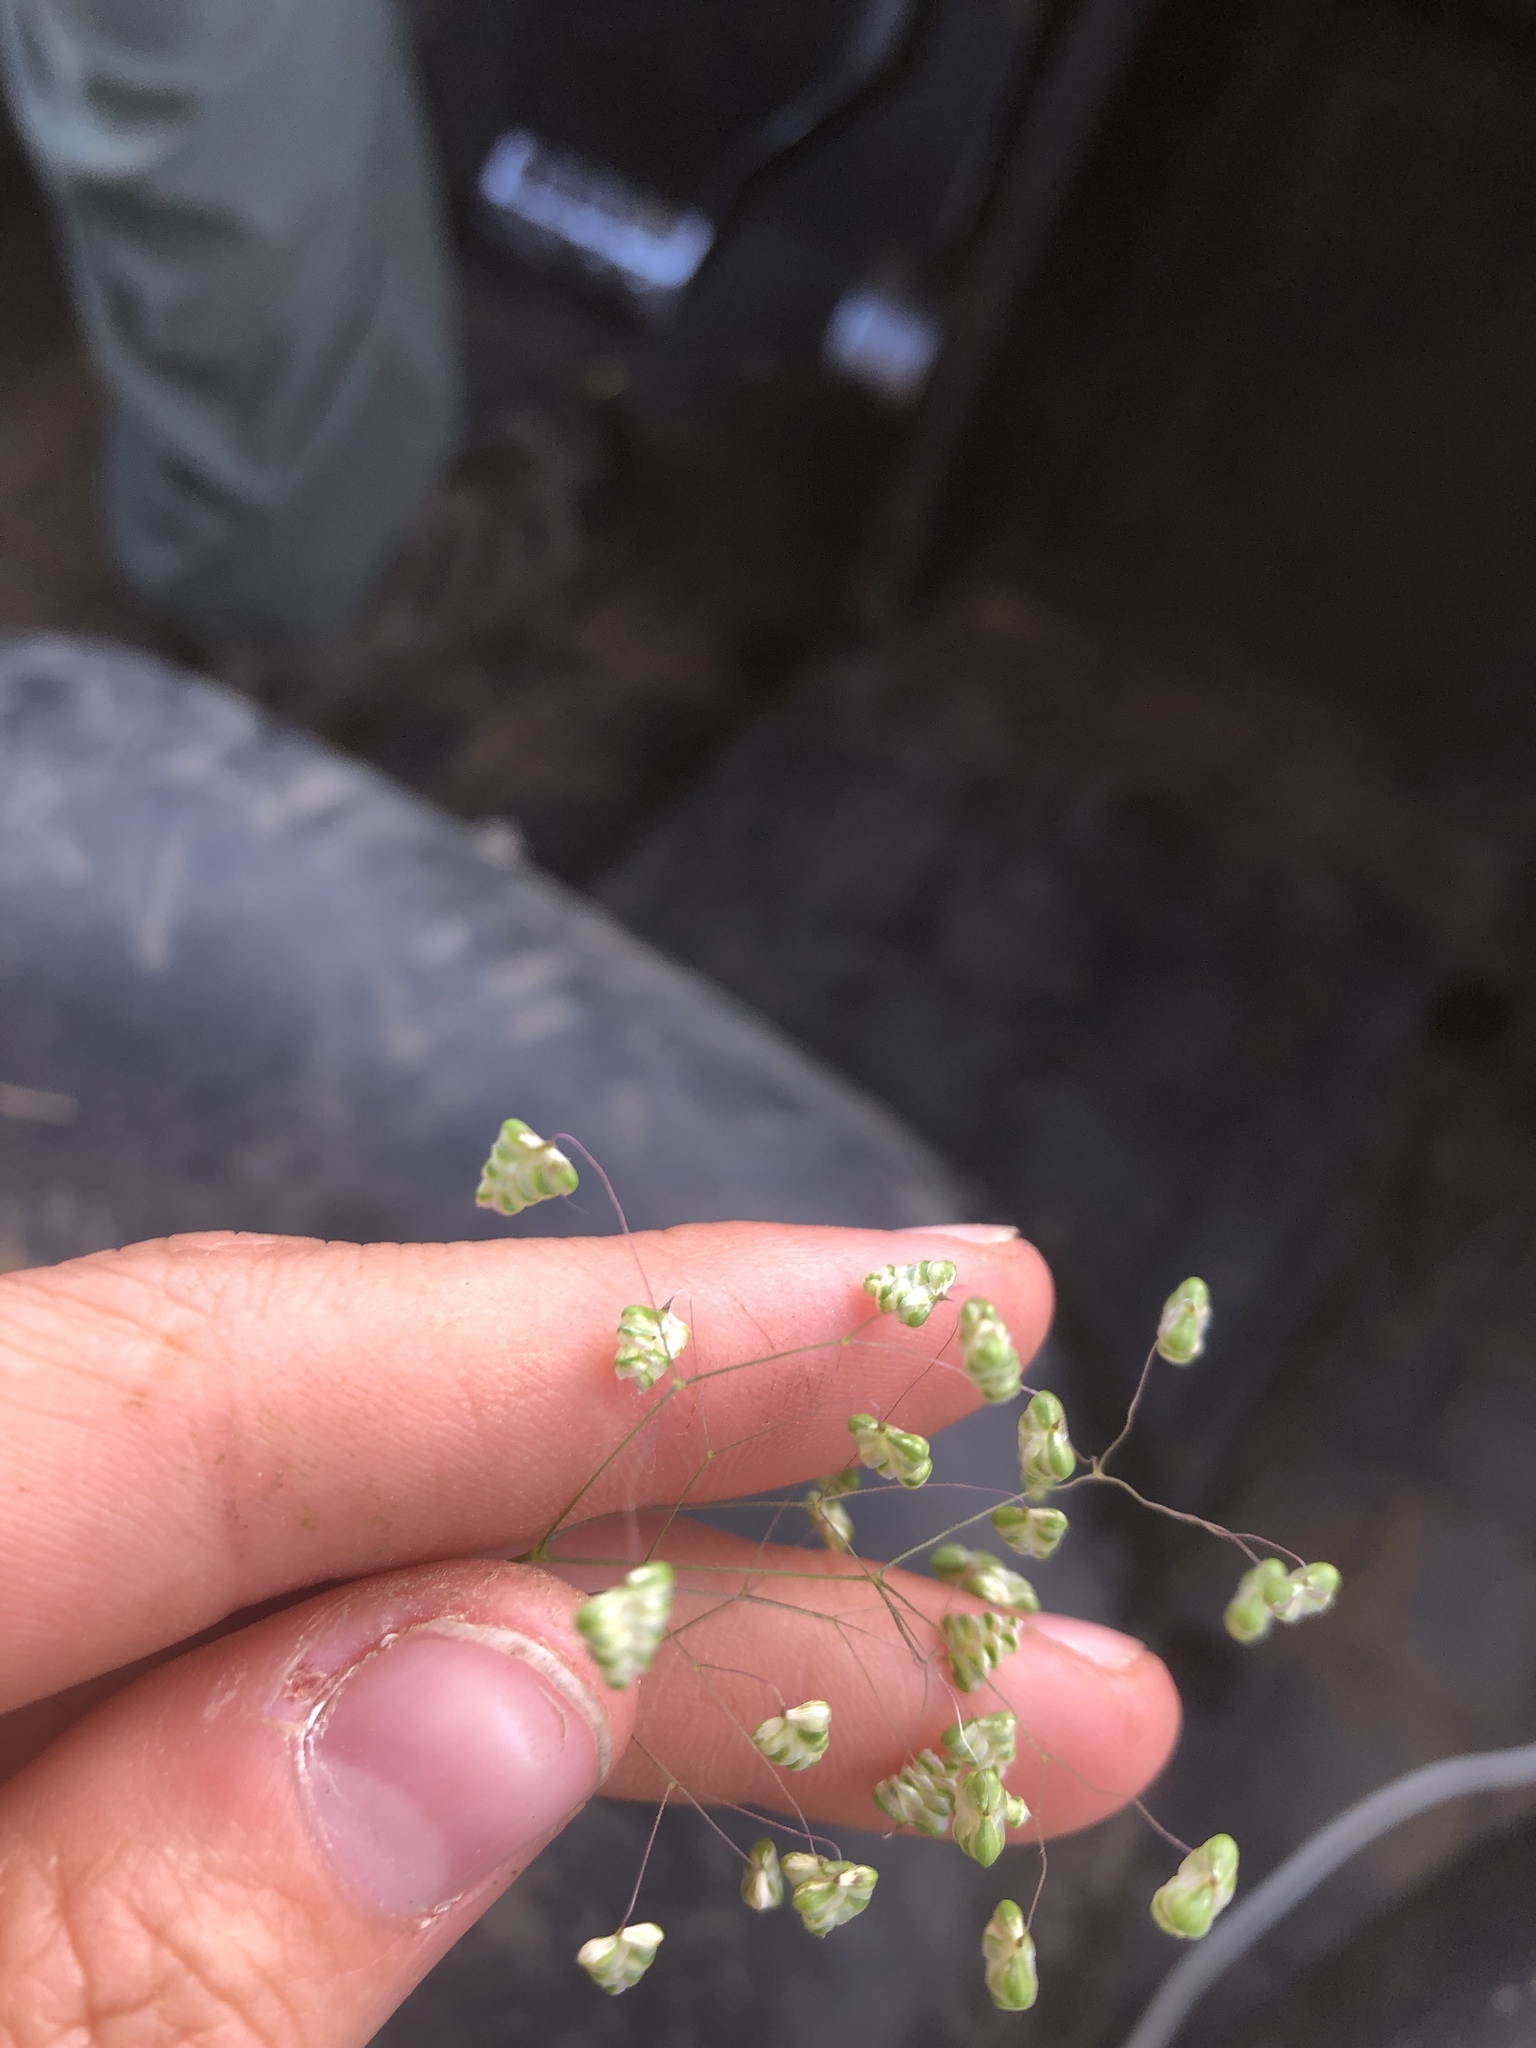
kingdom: Plantae
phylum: Tracheophyta
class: Liliopsida
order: Poales
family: Poaceae
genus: Briza
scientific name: Briza minor
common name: Lesser quaking-grass
